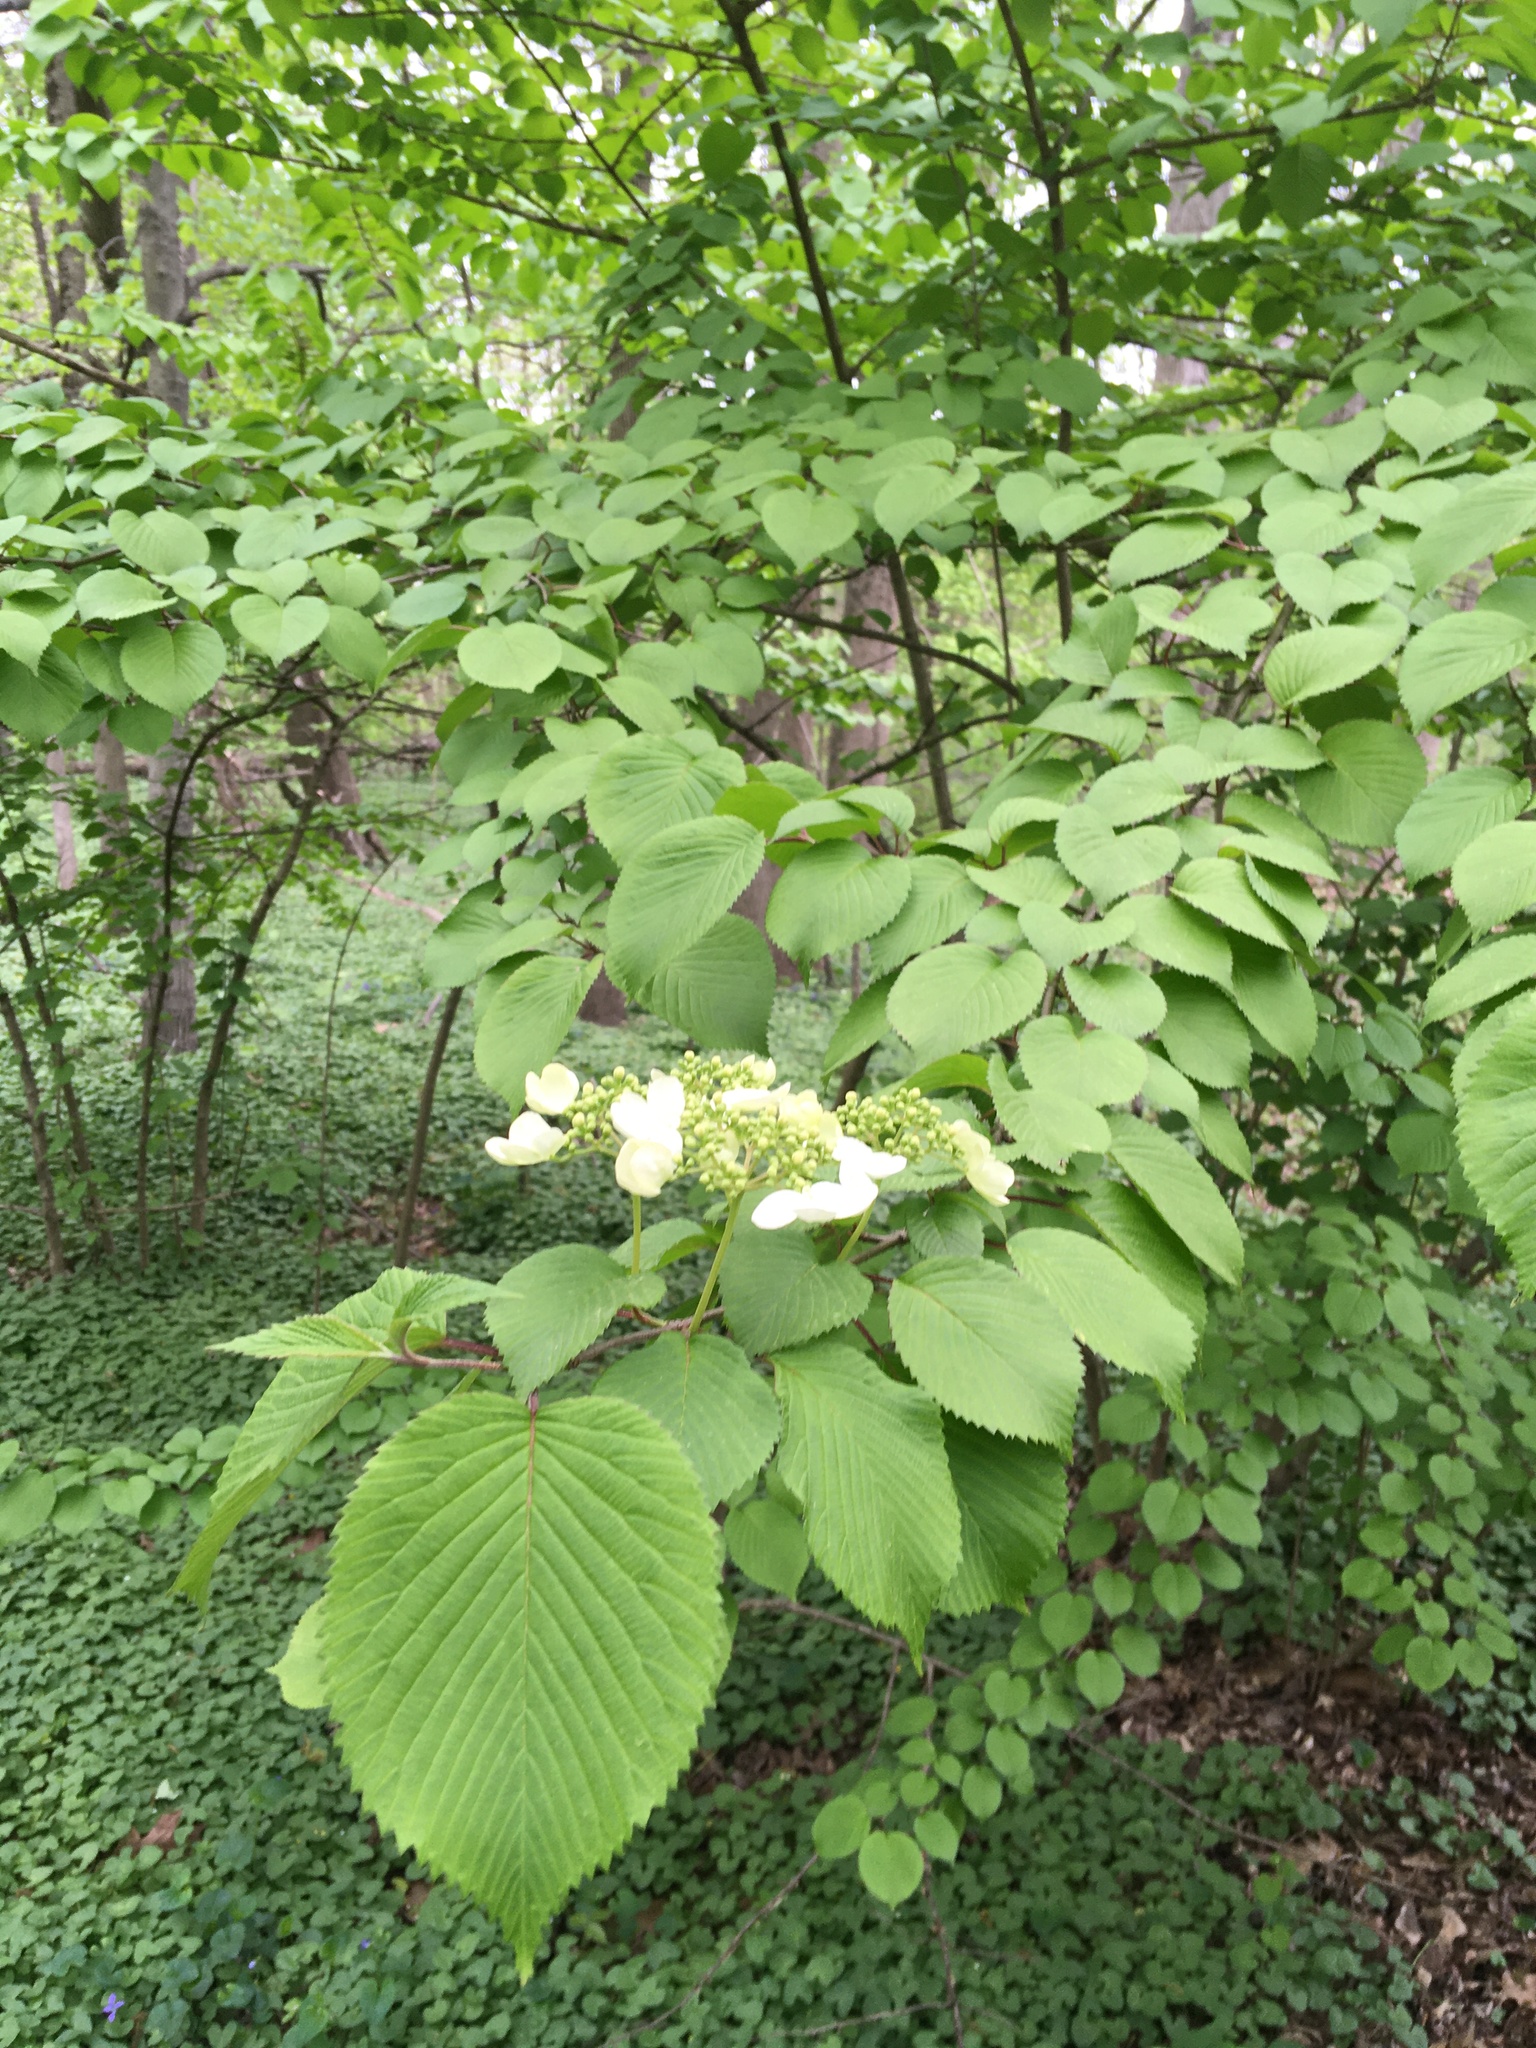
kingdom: Plantae
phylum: Tracheophyta
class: Magnoliopsida
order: Dipsacales
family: Viburnaceae
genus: Viburnum
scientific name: Viburnum plicatum
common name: Japanese snowball
